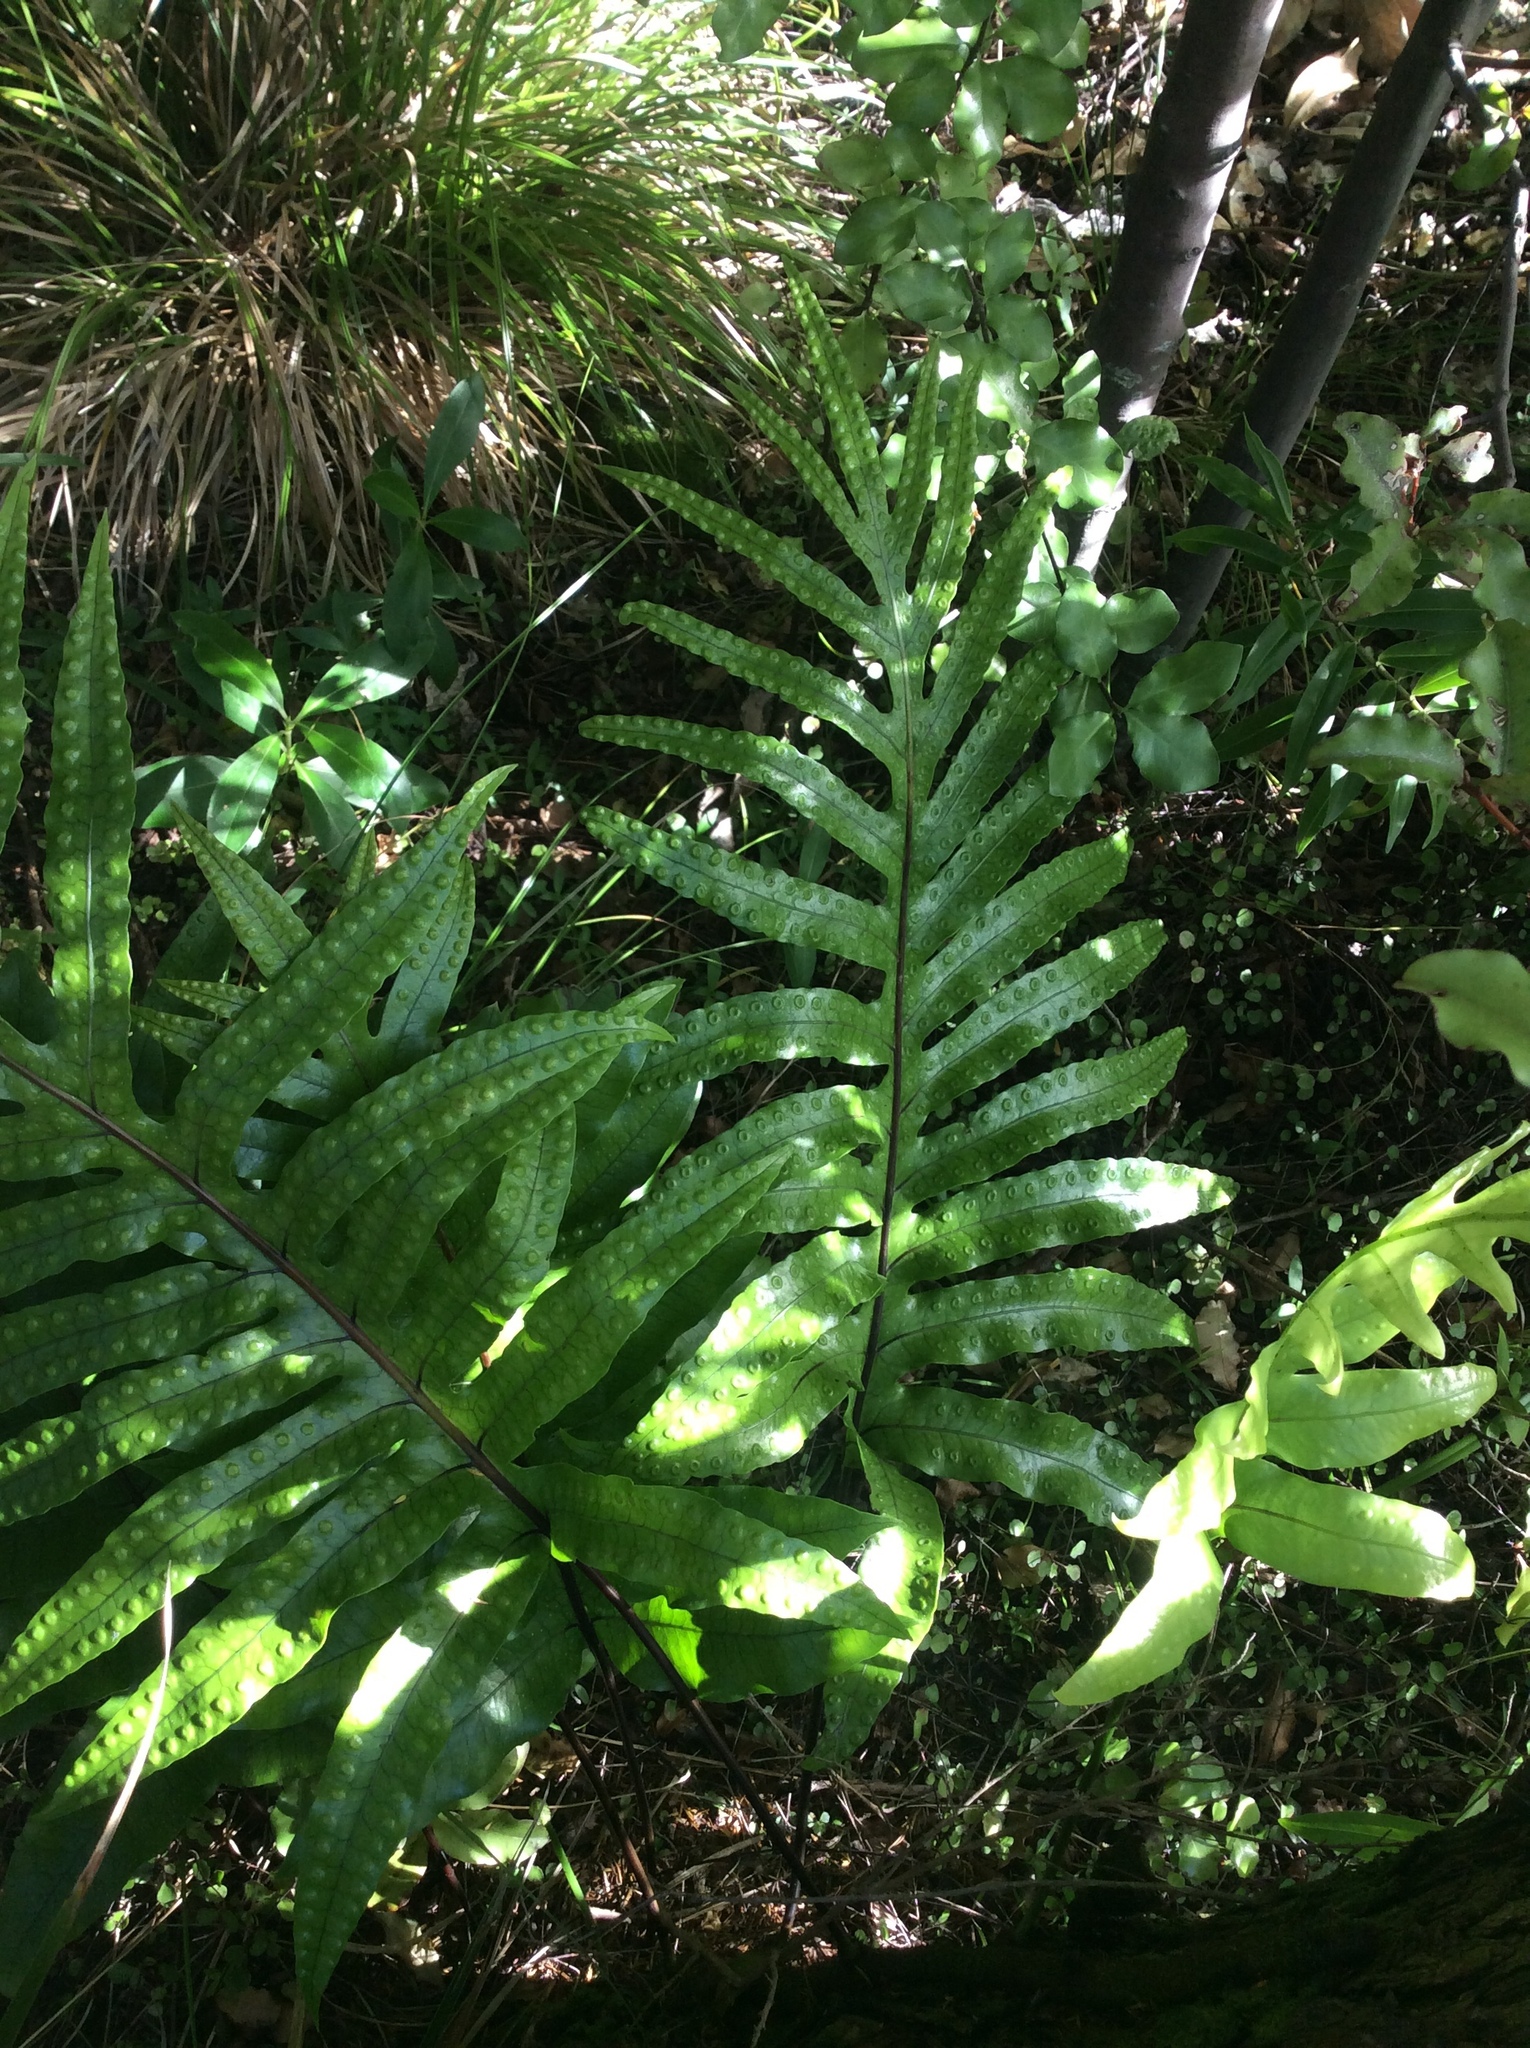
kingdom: Plantae
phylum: Tracheophyta
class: Polypodiopsida
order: Polypodiales
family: Polypodiaceae
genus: Lecanopteris
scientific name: Lecanopteris pustulata
